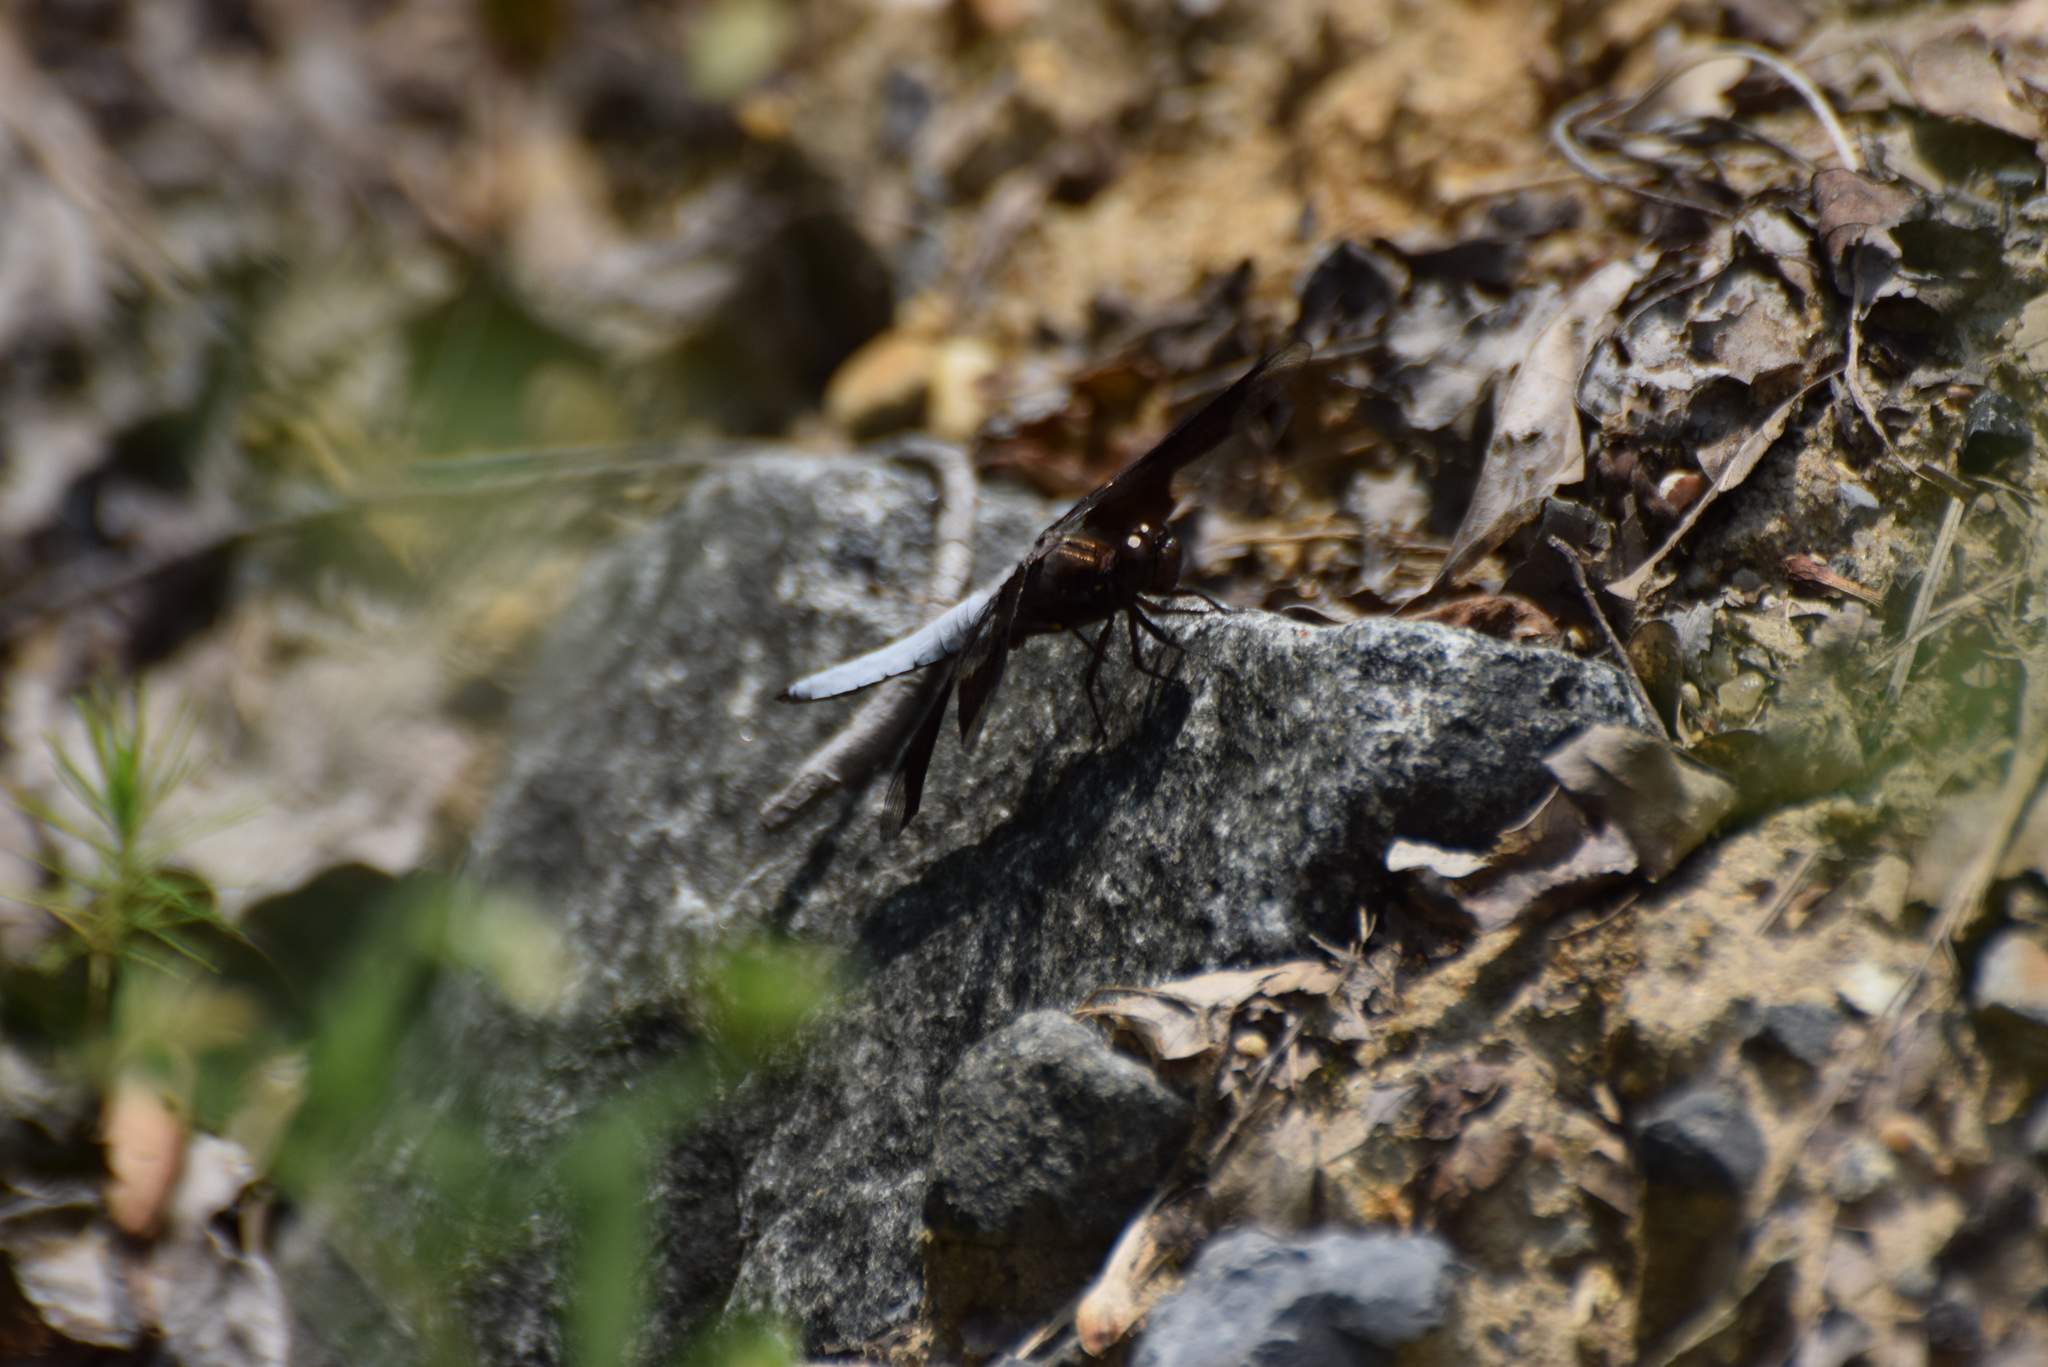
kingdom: Animalia
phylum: Arthropoda
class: Insecta
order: Odonata
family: Libellulidae
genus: Plathemis
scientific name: Plathemis lydia
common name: Common whitetail
